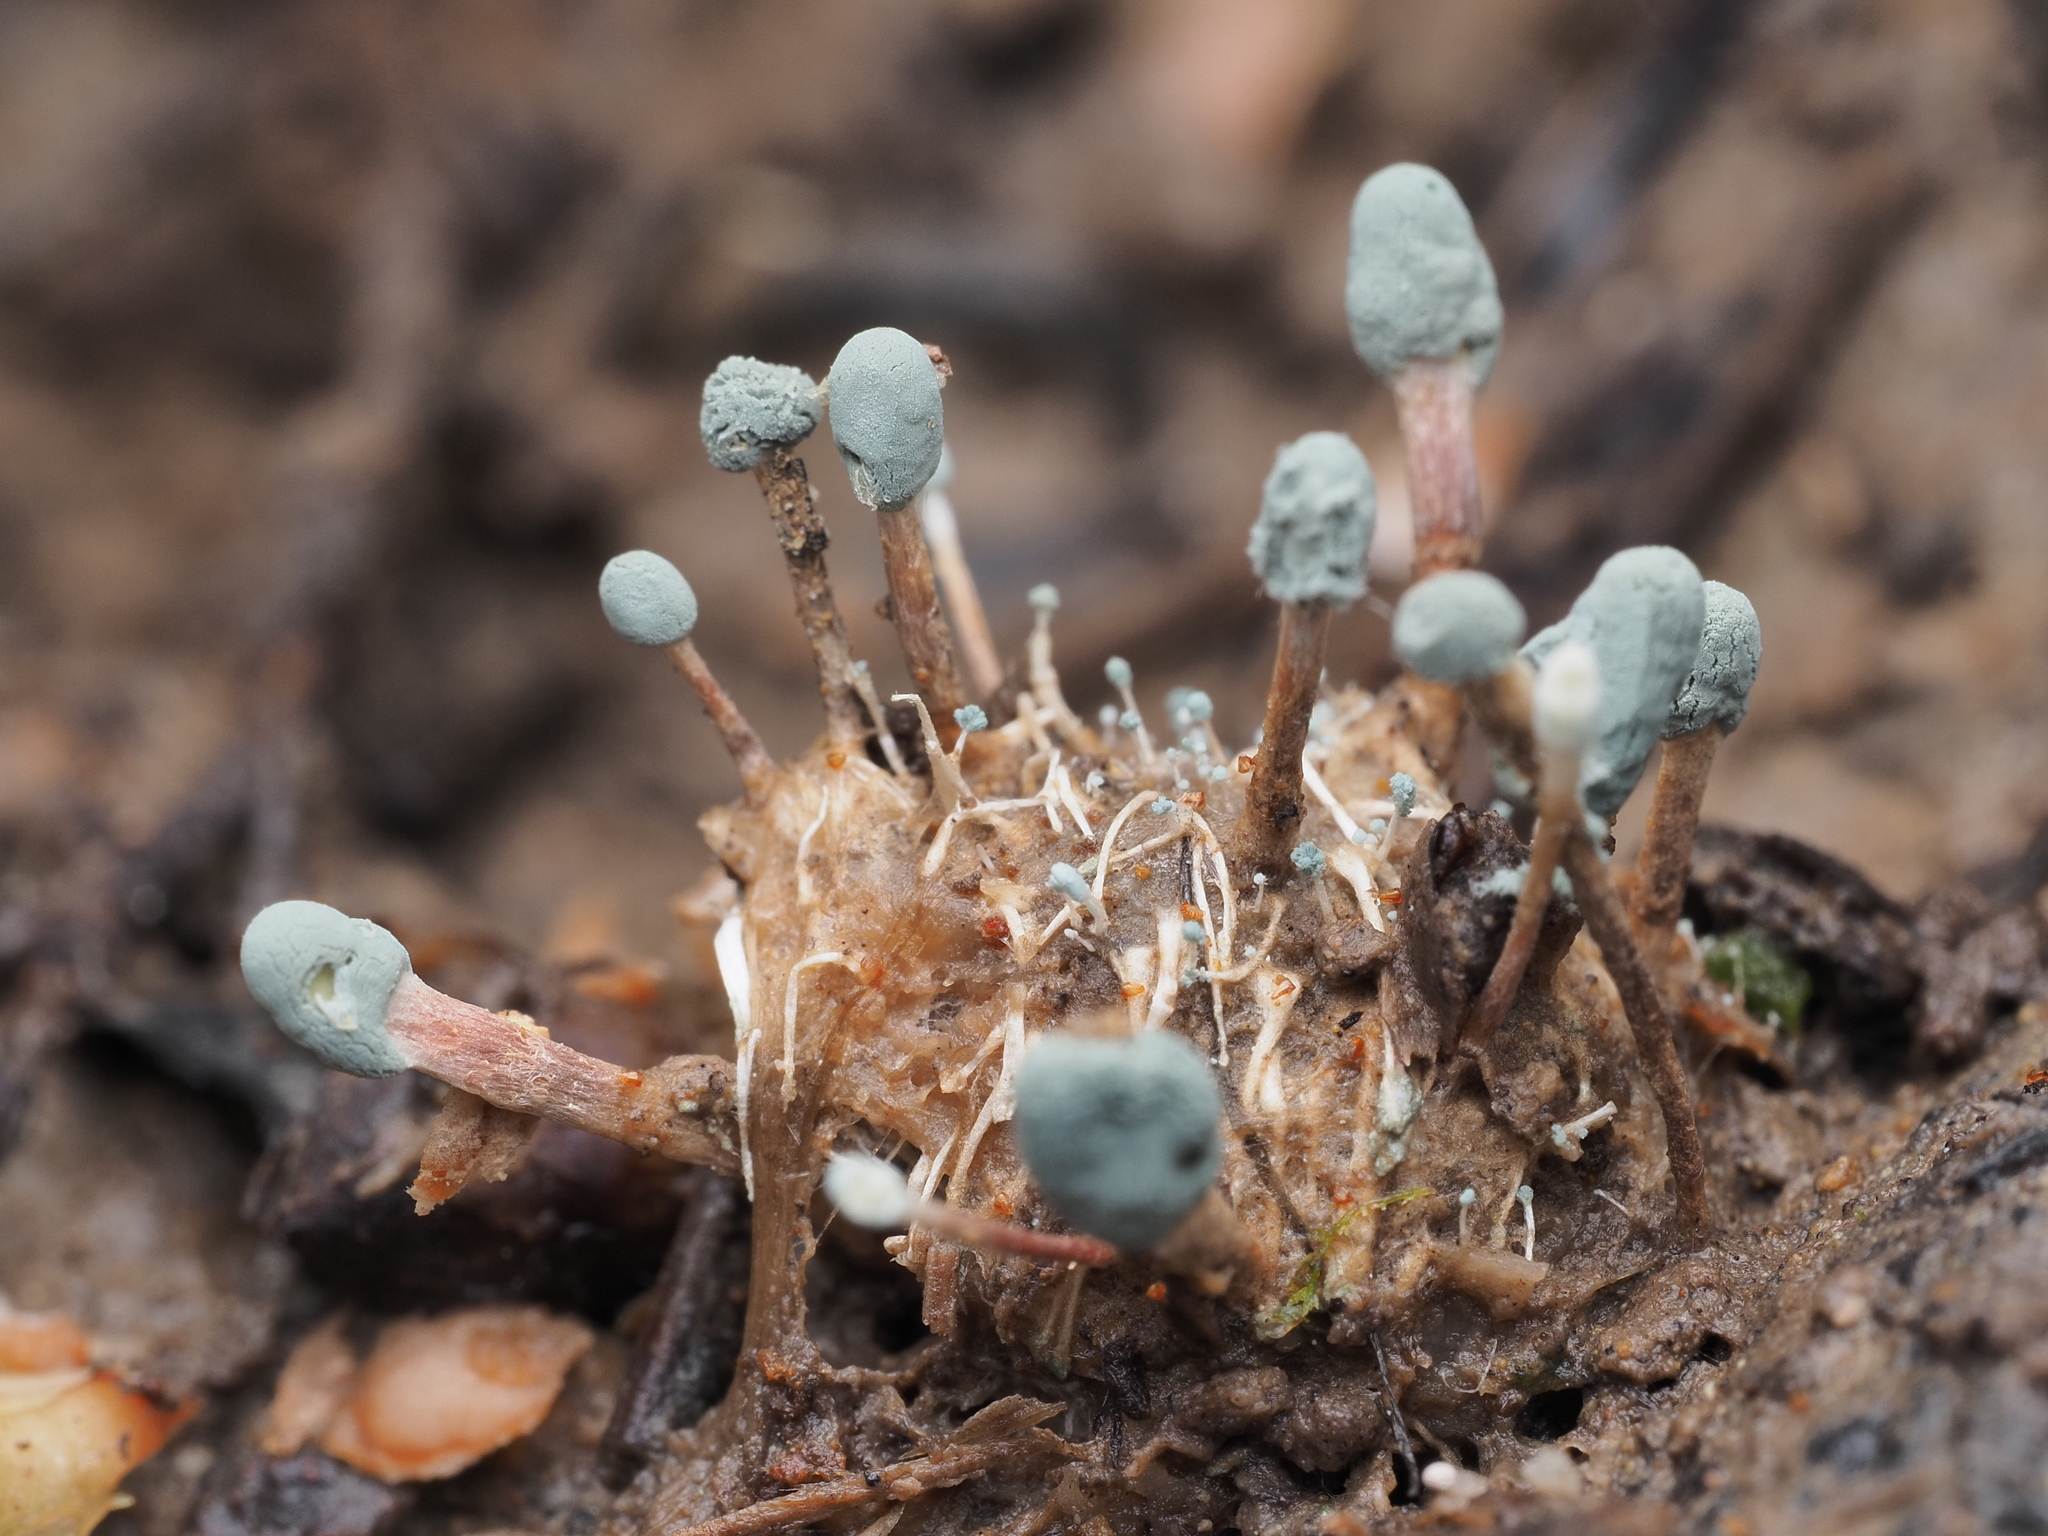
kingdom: Fungi
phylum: Ascomycota
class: Eurotiomycetes
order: Eurotiales
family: Aspergillaceae
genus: Penicillium
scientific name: Penicillium vulpinum
